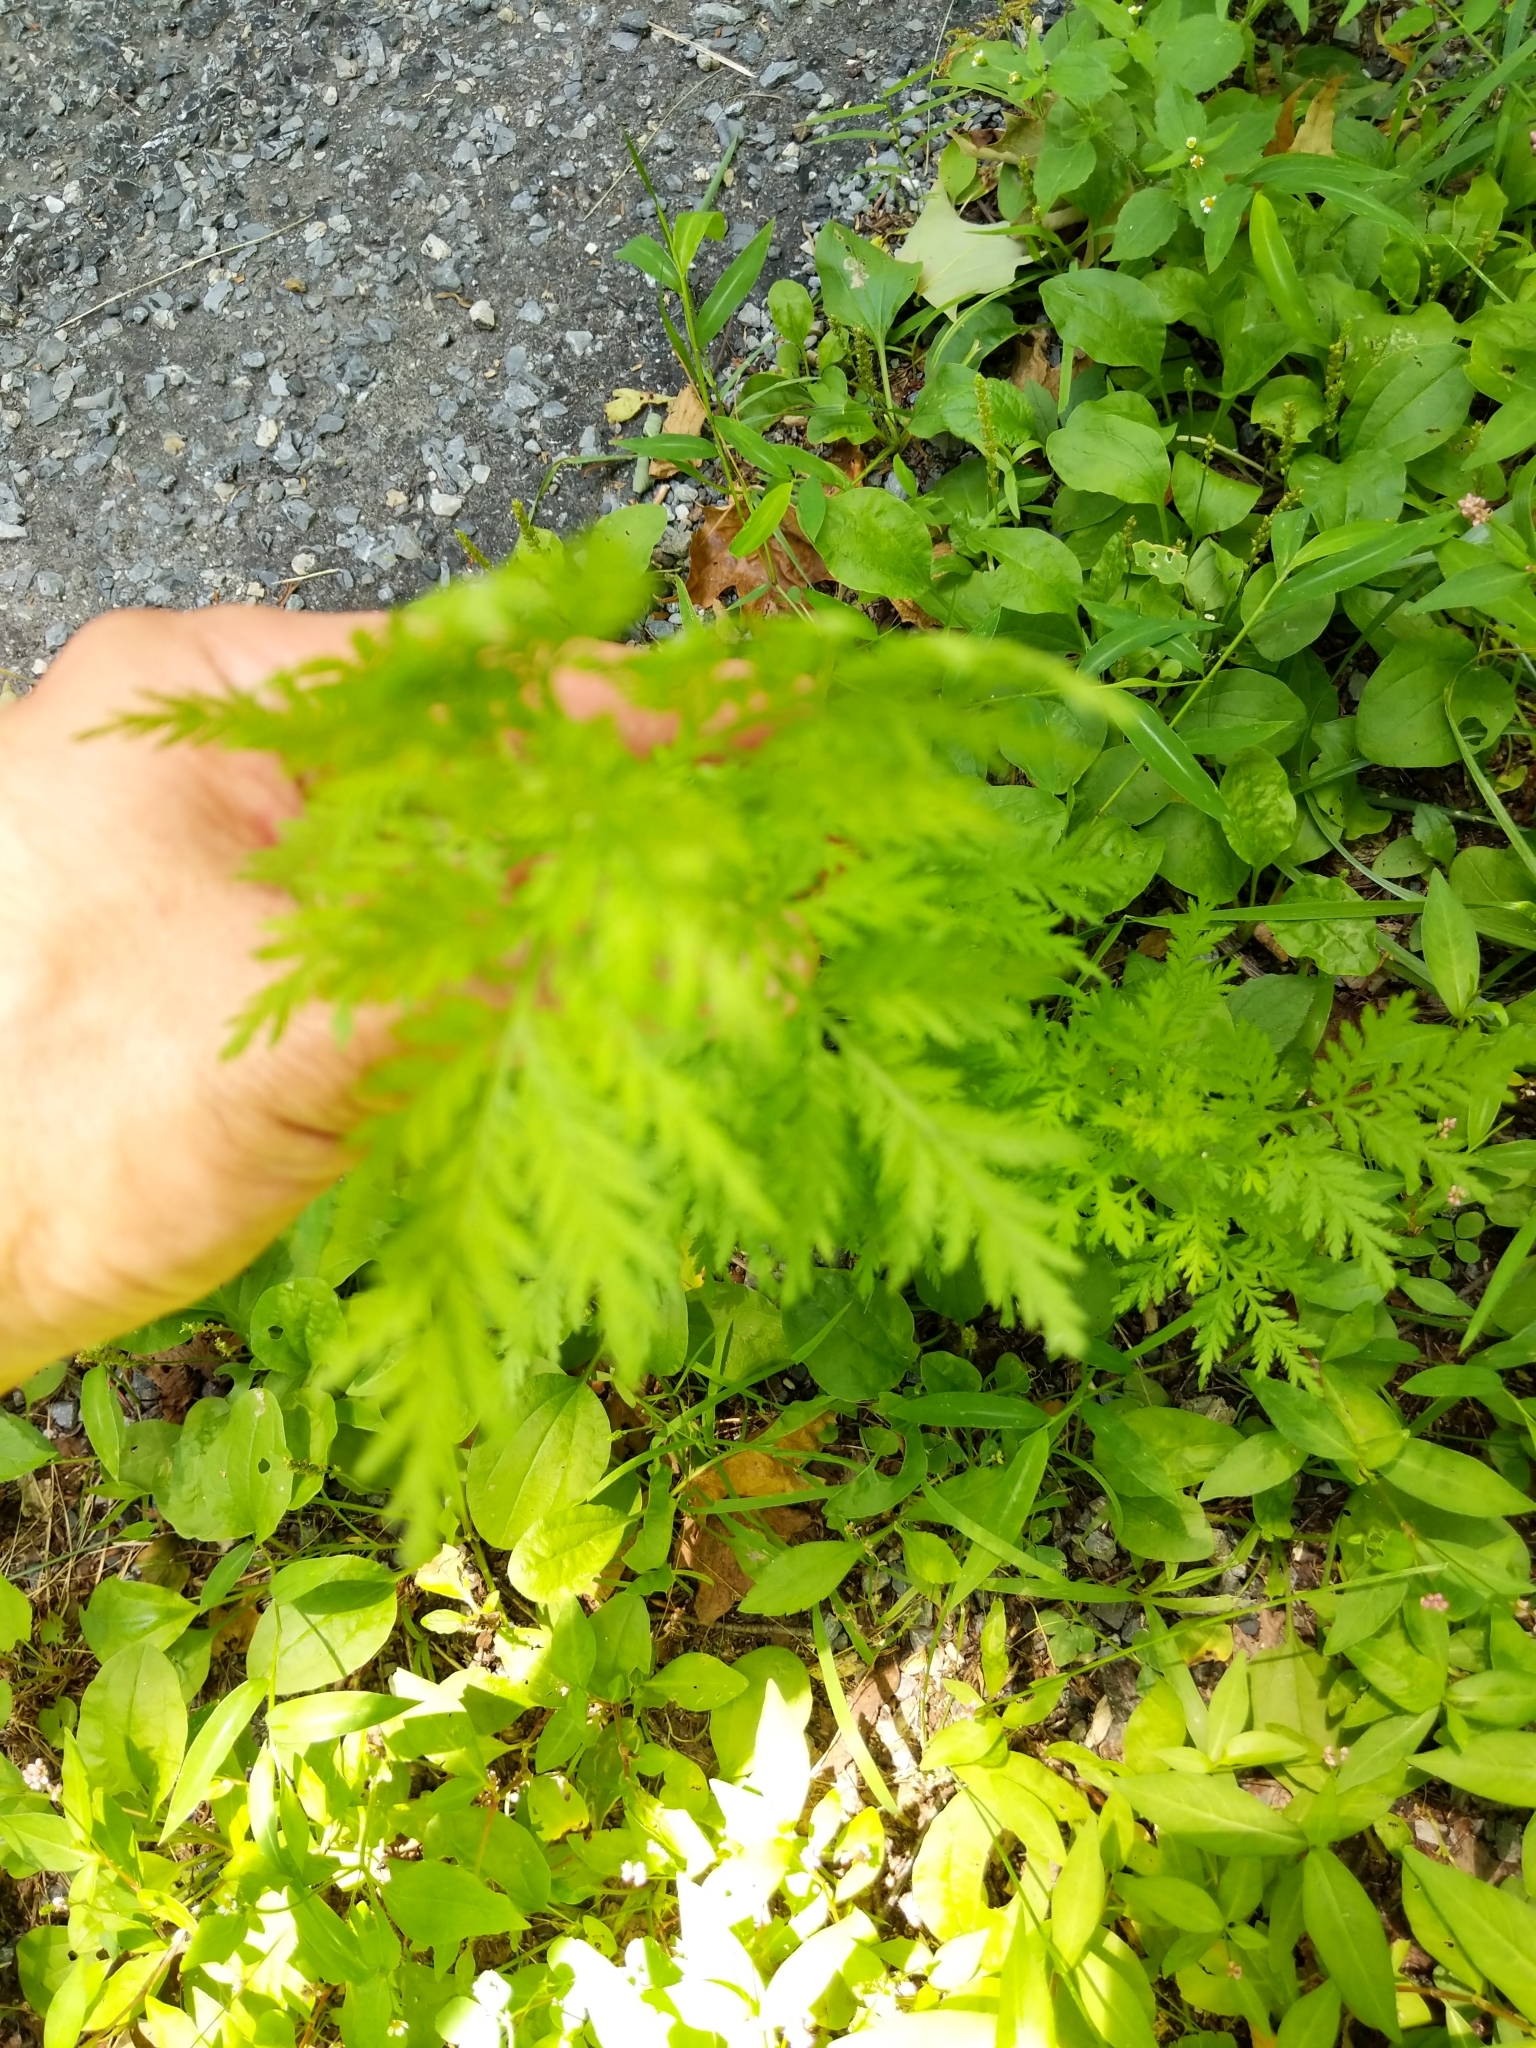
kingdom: Plantae
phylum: Tracheophyta
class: Magnoliopsida
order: Asterales
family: Asteraceae
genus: Artemisia
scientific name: Artemisia annua
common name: Sweet sagewort
